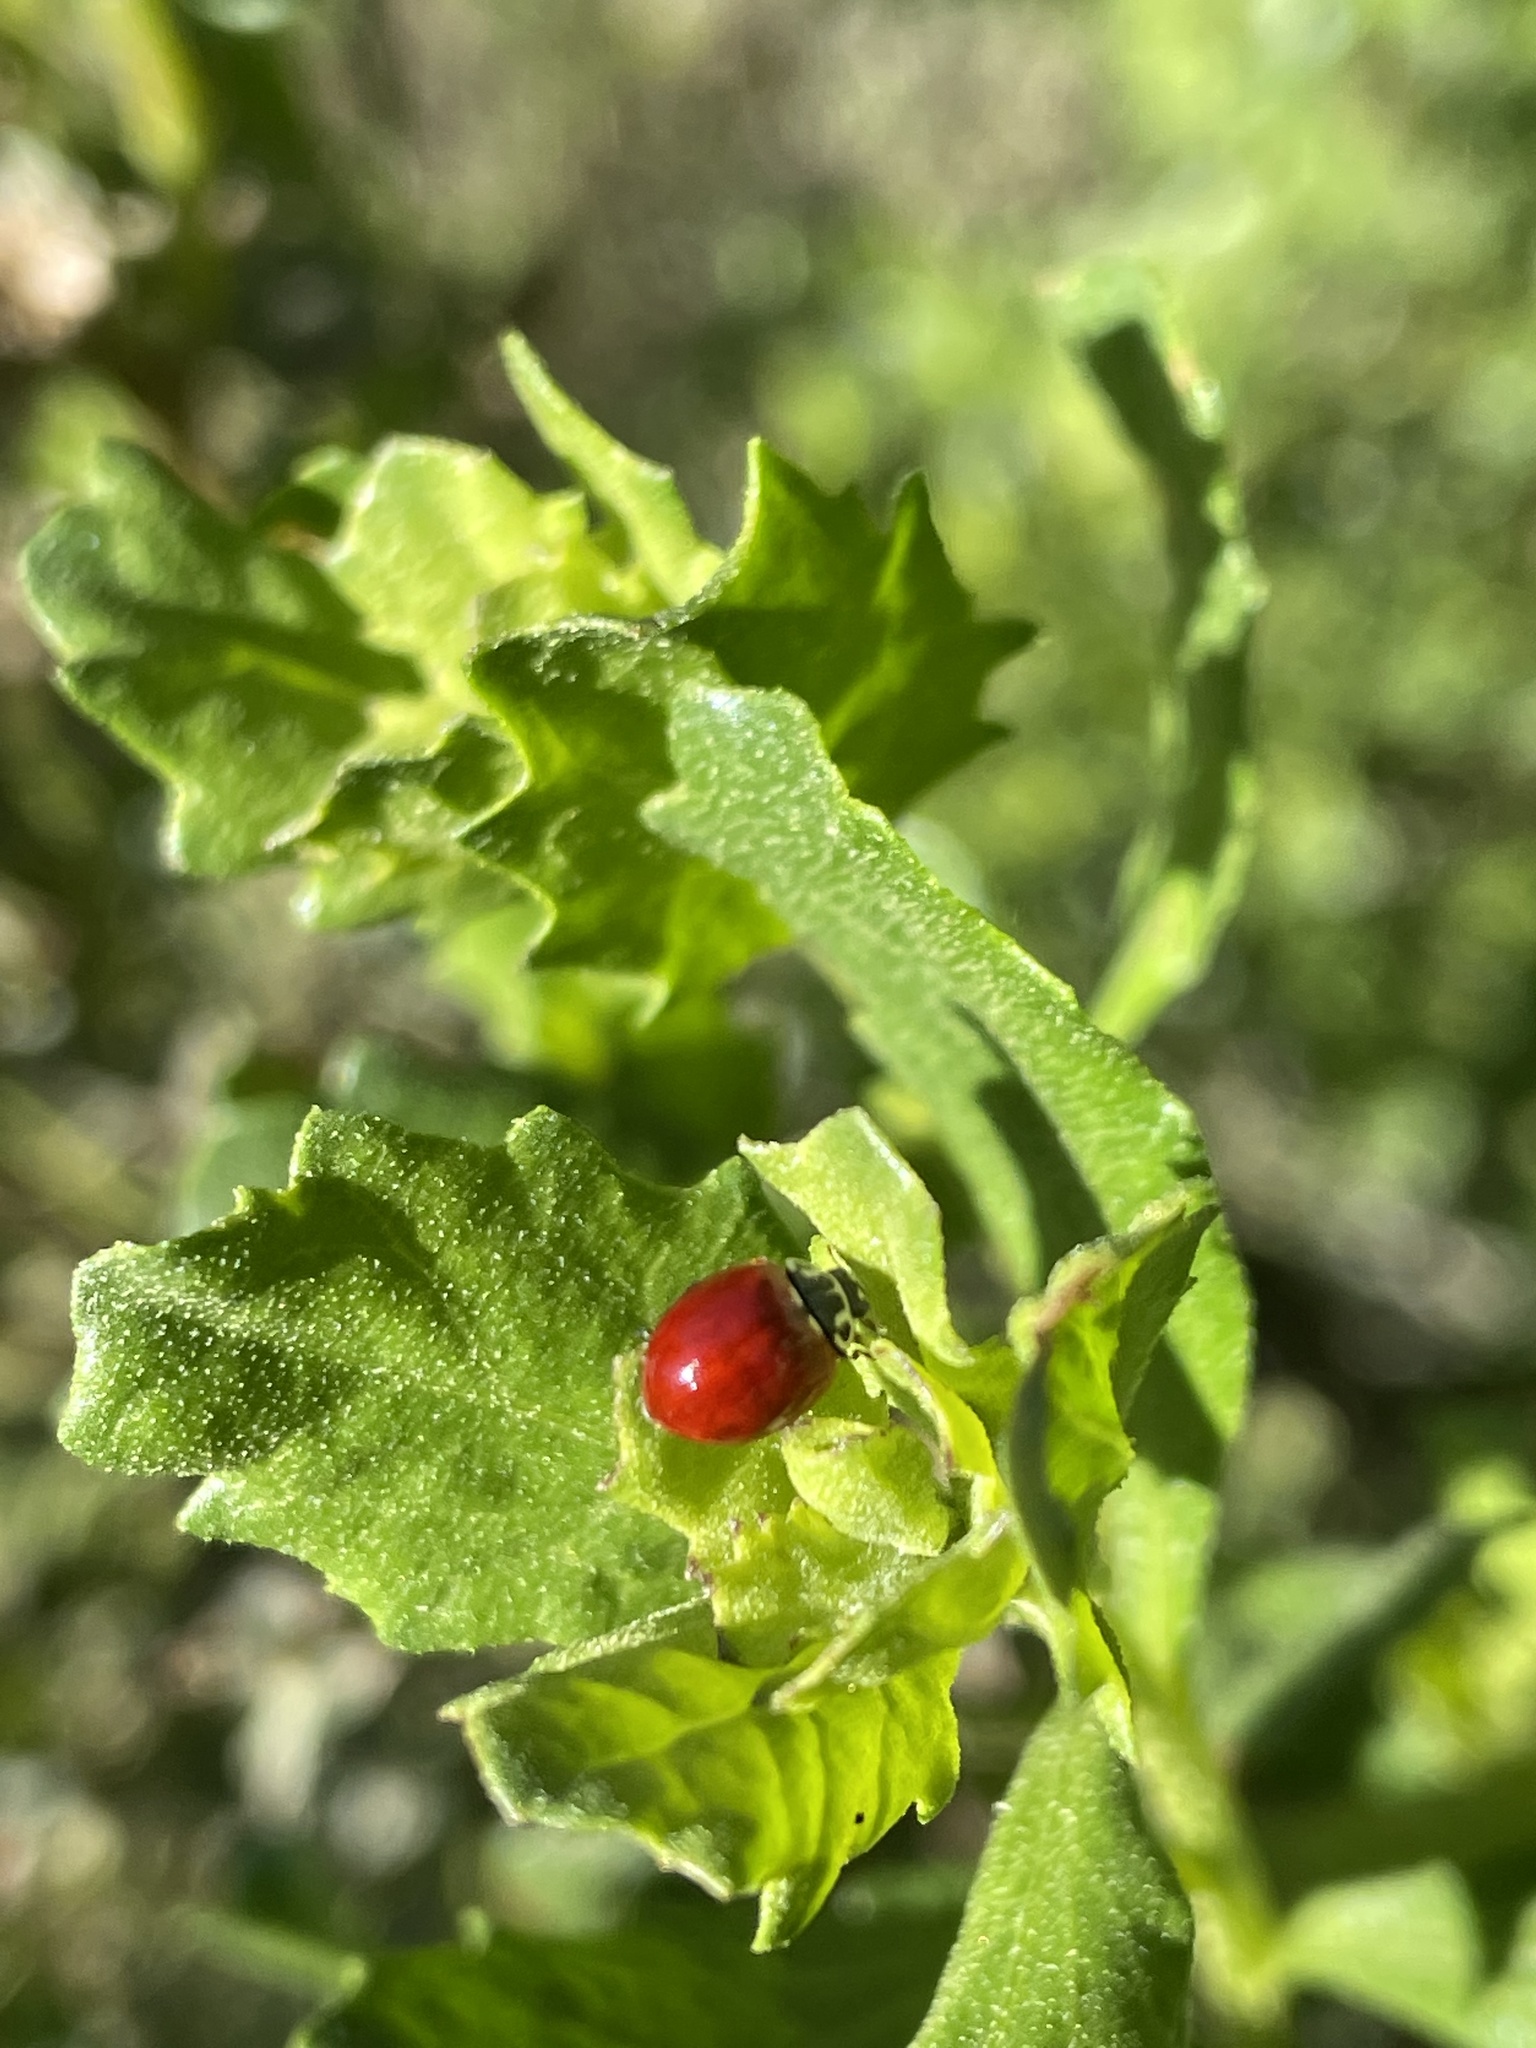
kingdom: Animalia
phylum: Arthropoda
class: Insecta
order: Coleoptera
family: Coccinellidae
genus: Cycloneda
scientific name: Cycloneda polita
